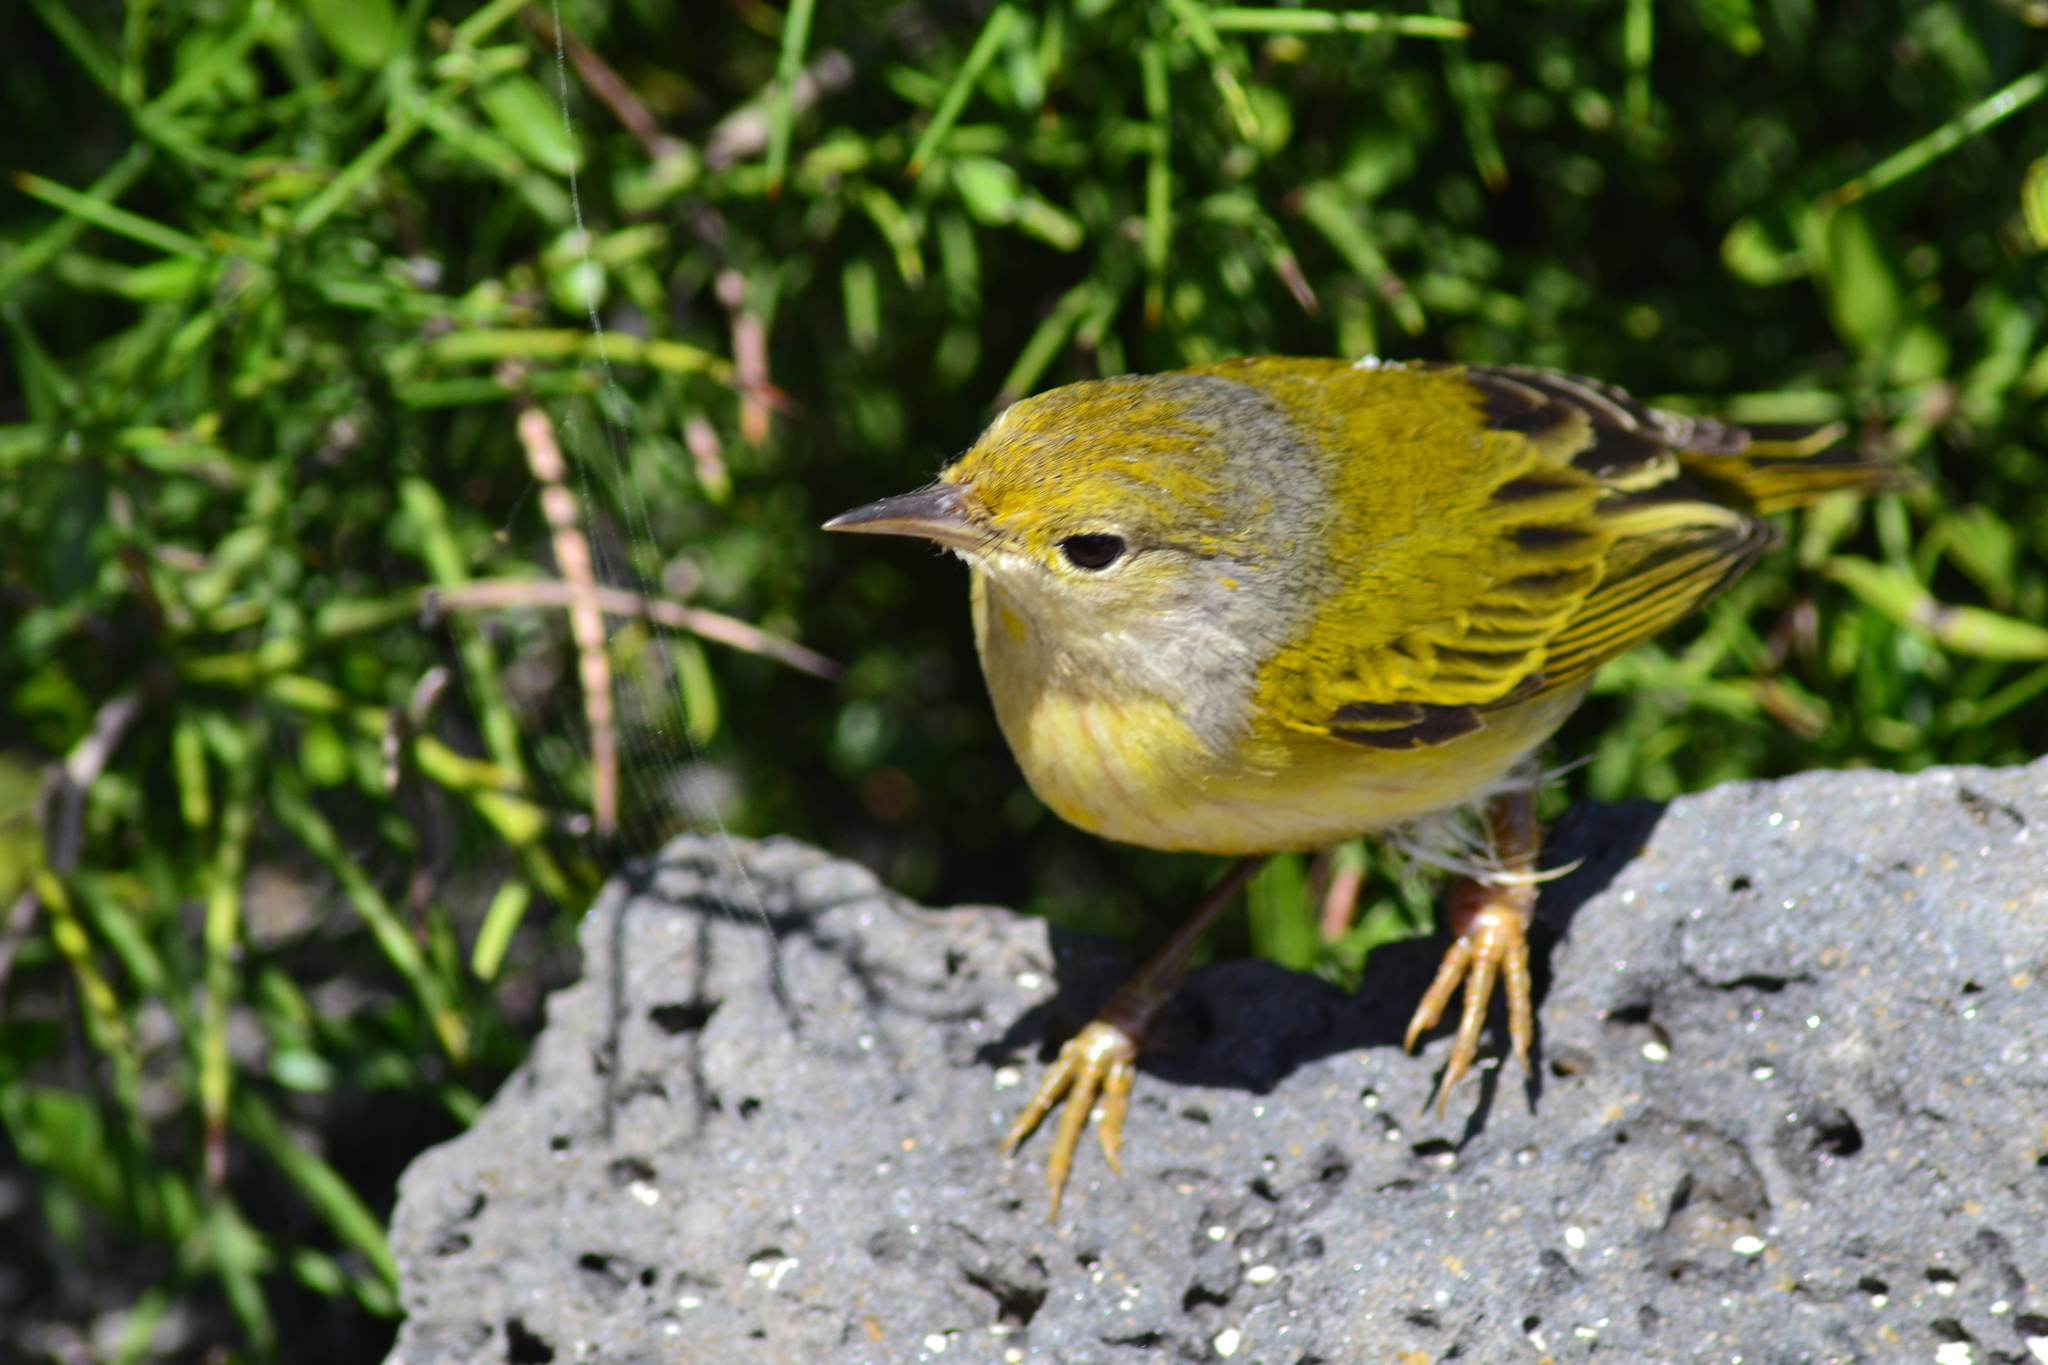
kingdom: Animalia
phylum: Chordata
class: Aves
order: Passeriformes
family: Parulidae
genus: Setophaga
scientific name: Setophaga petechia
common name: Yellow warbler
